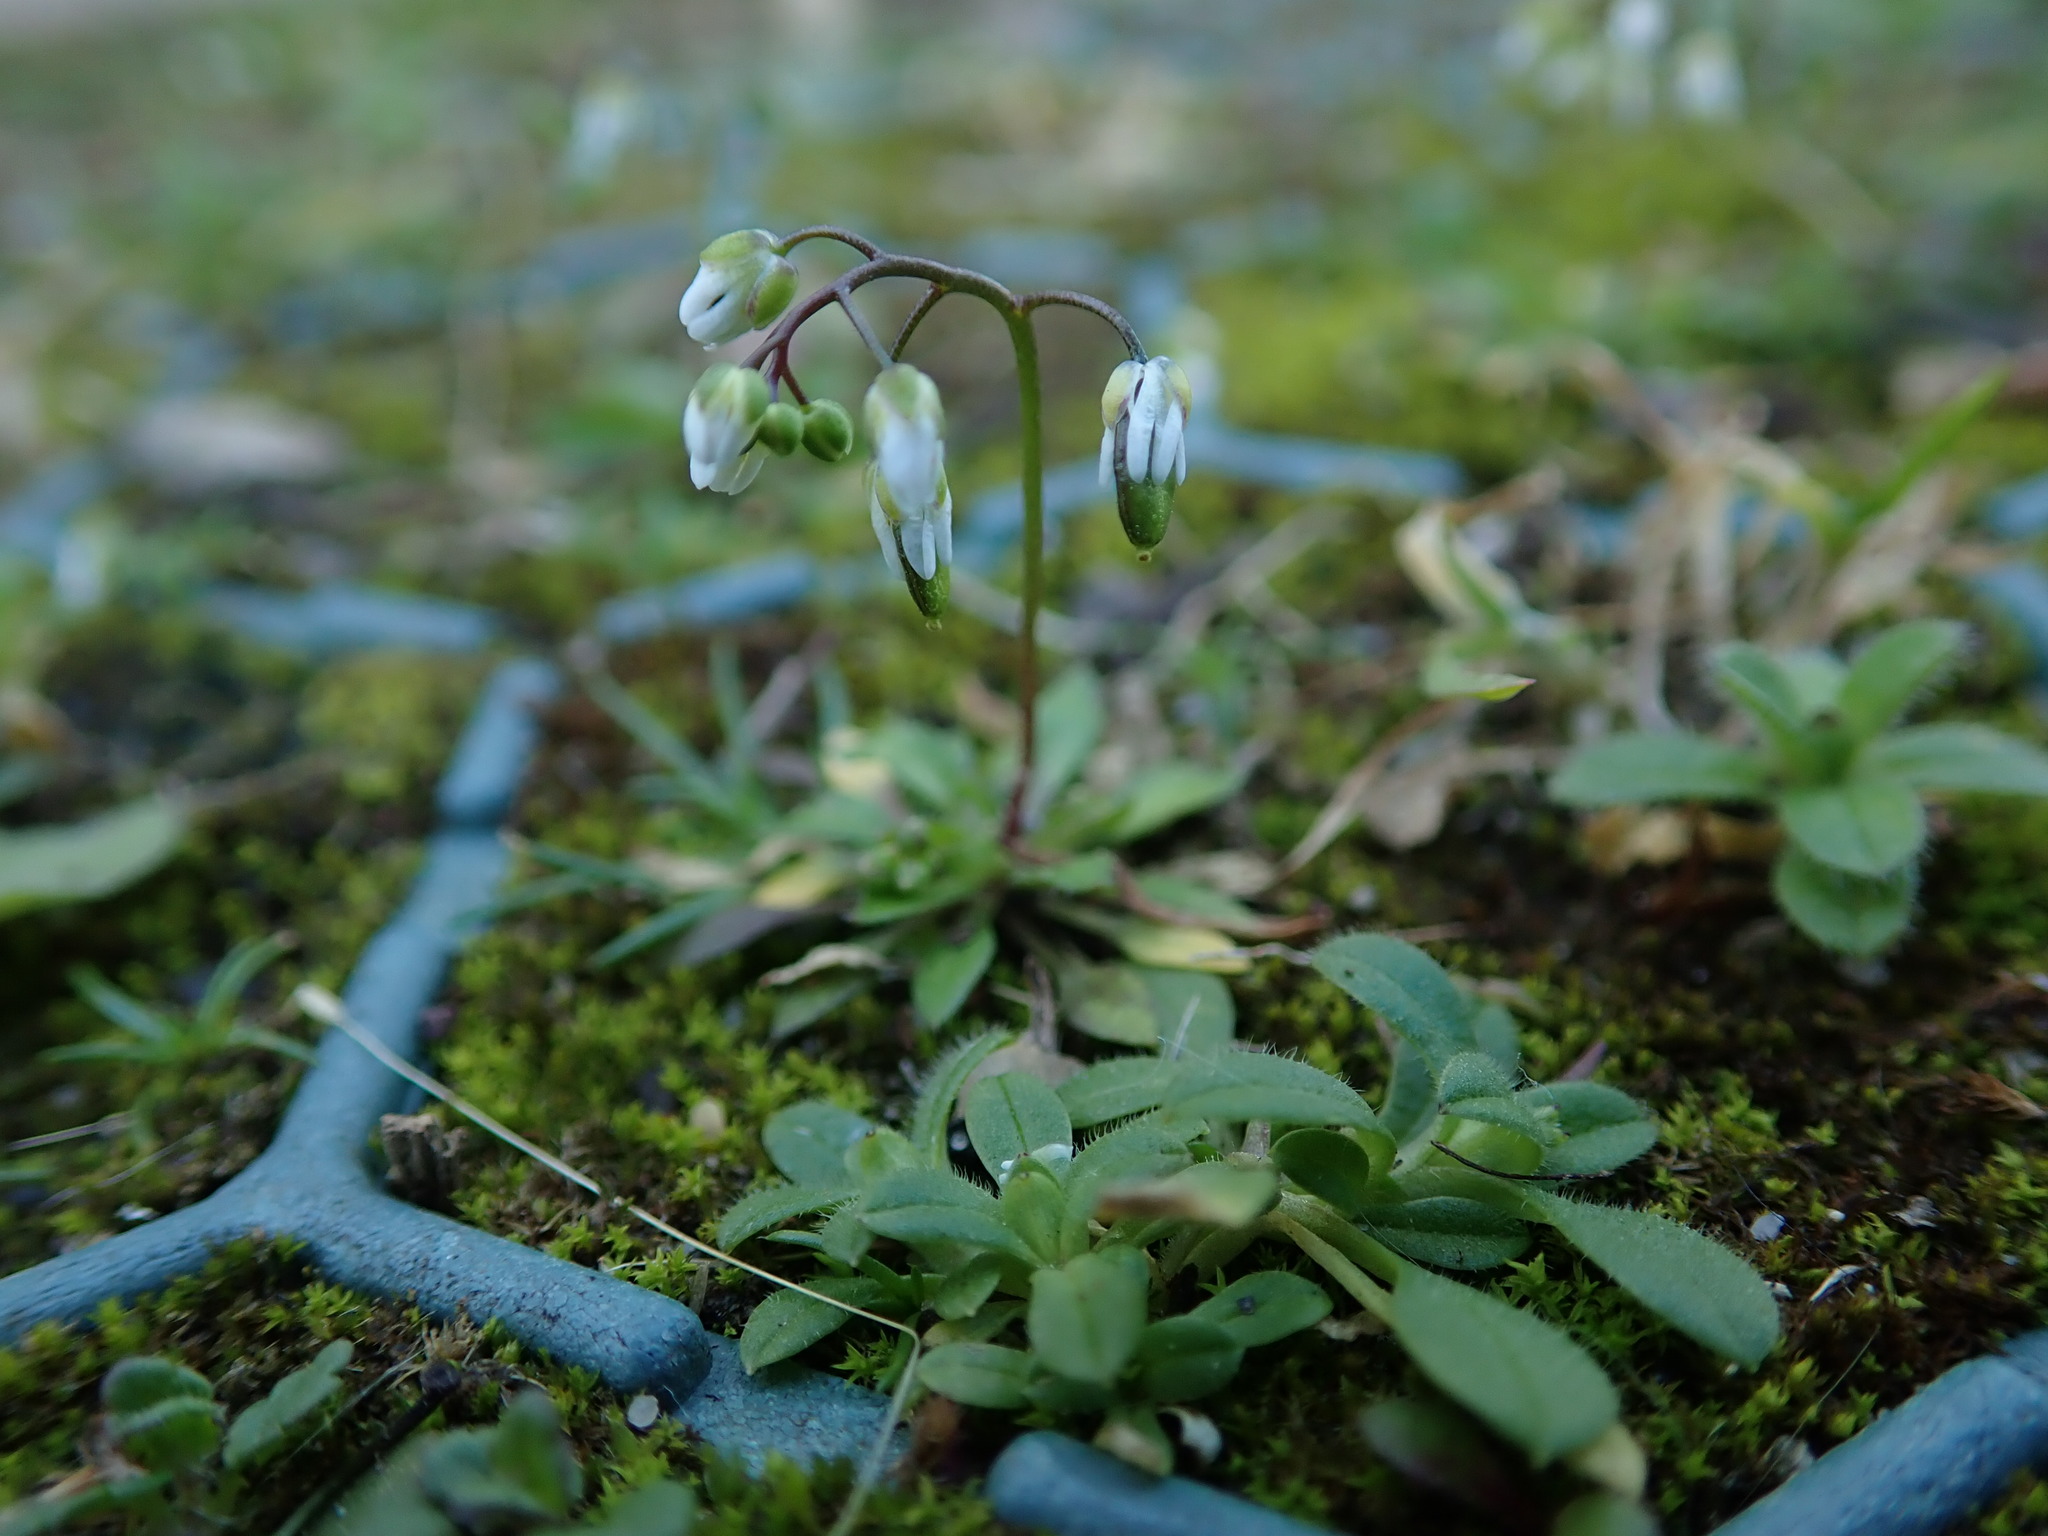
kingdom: Plantae
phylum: Tracheophyta
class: Magnoliopsida
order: Brassicales
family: Brassicaceae
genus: Draba
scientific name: Draba verna
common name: Spring draba
